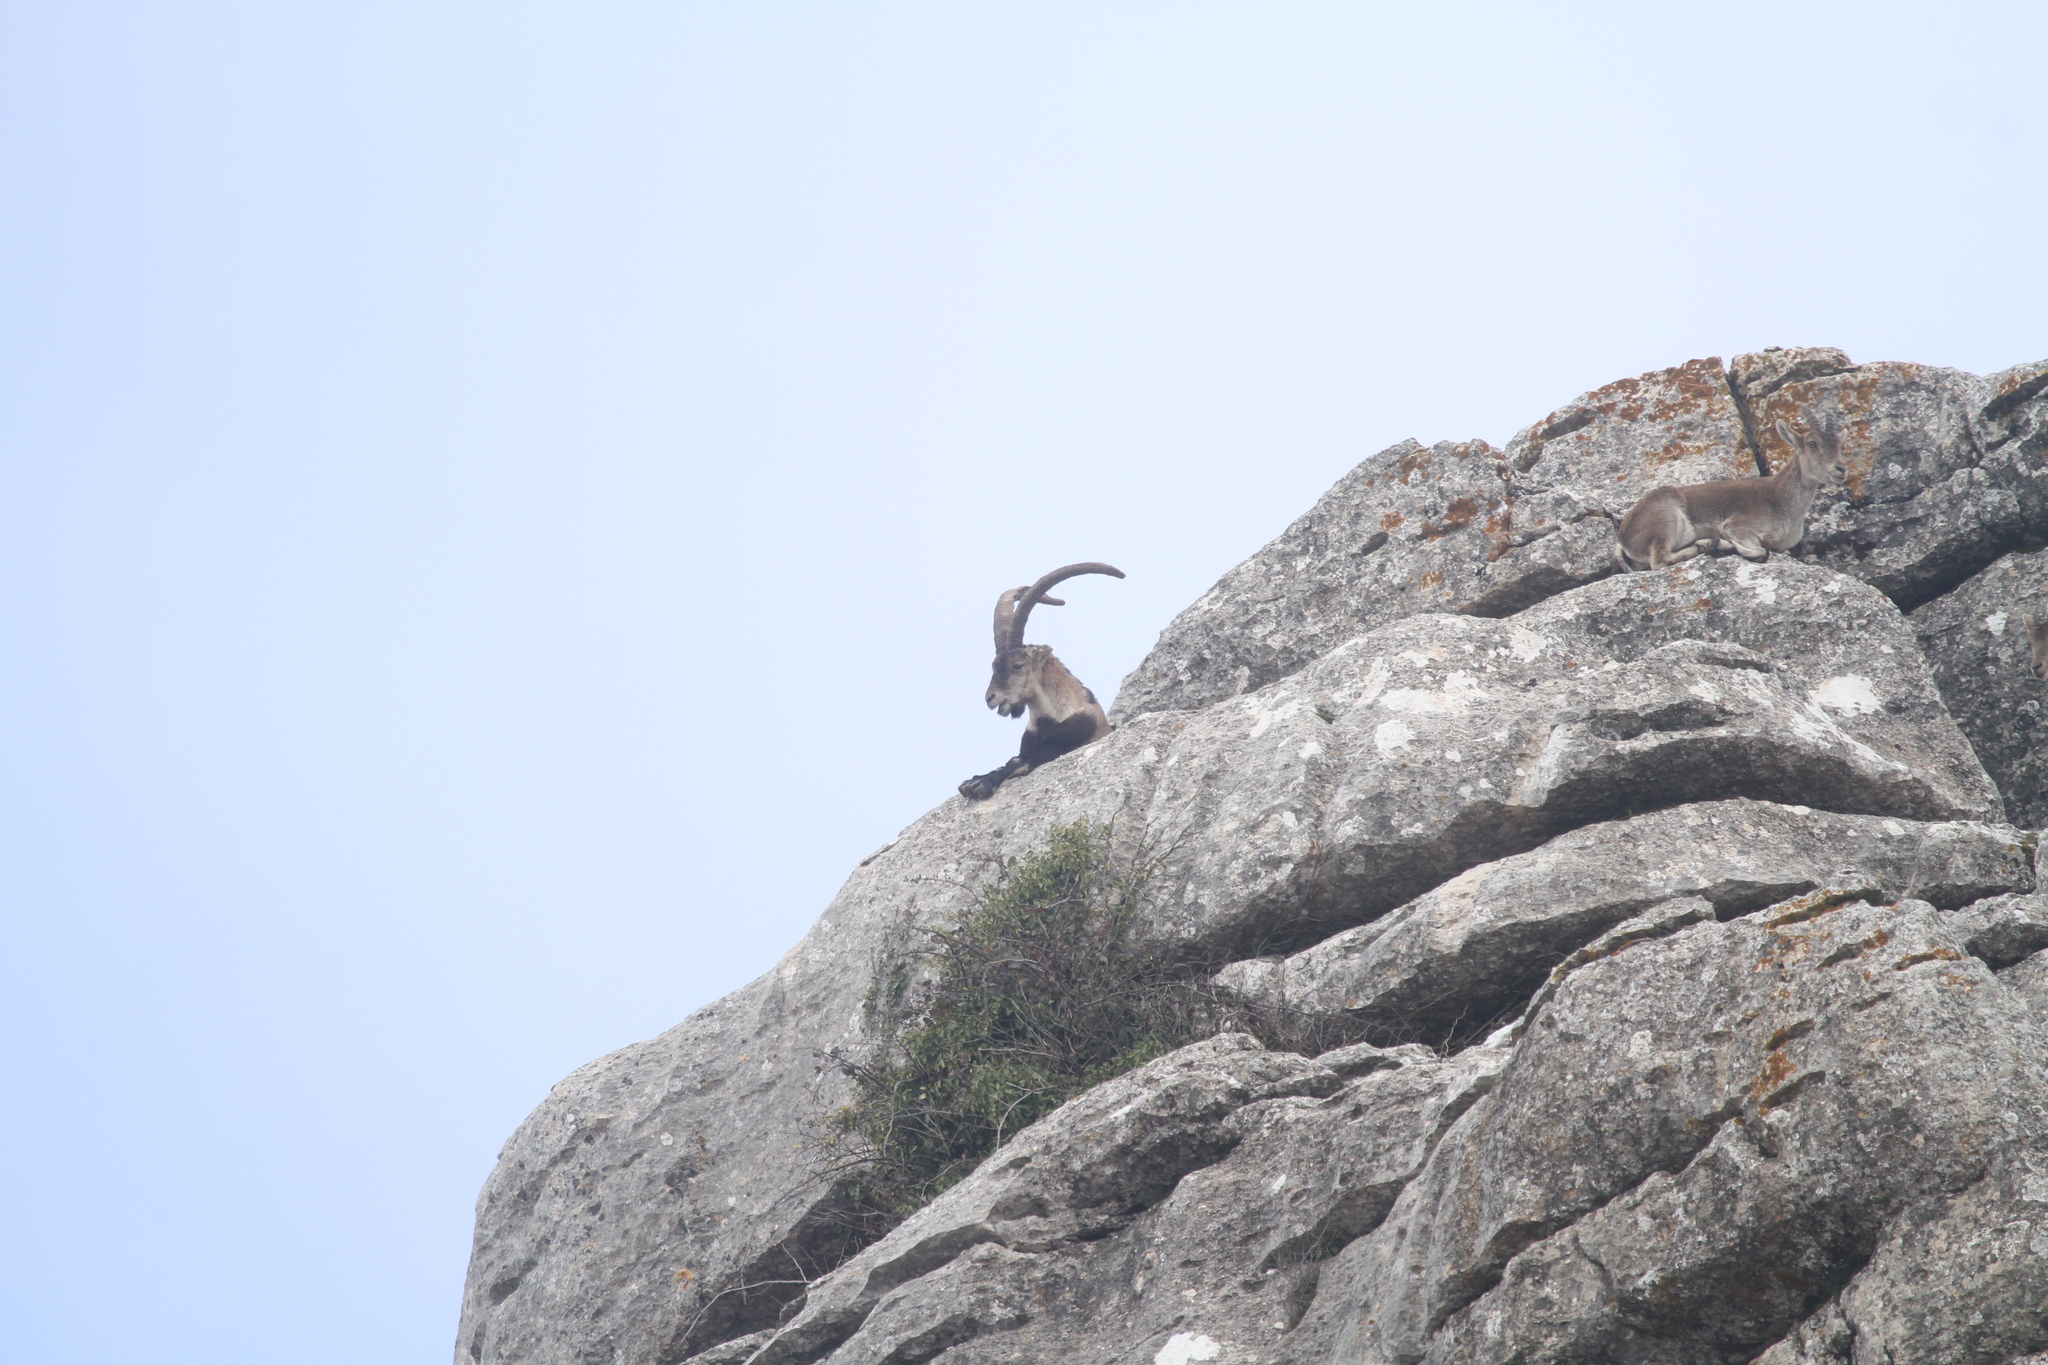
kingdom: Animalia
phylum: Chordata
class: Mammalia
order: Artiodactyla
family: Bovidae
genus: Capra
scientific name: Capra pyrenaica
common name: Spanish ibex
